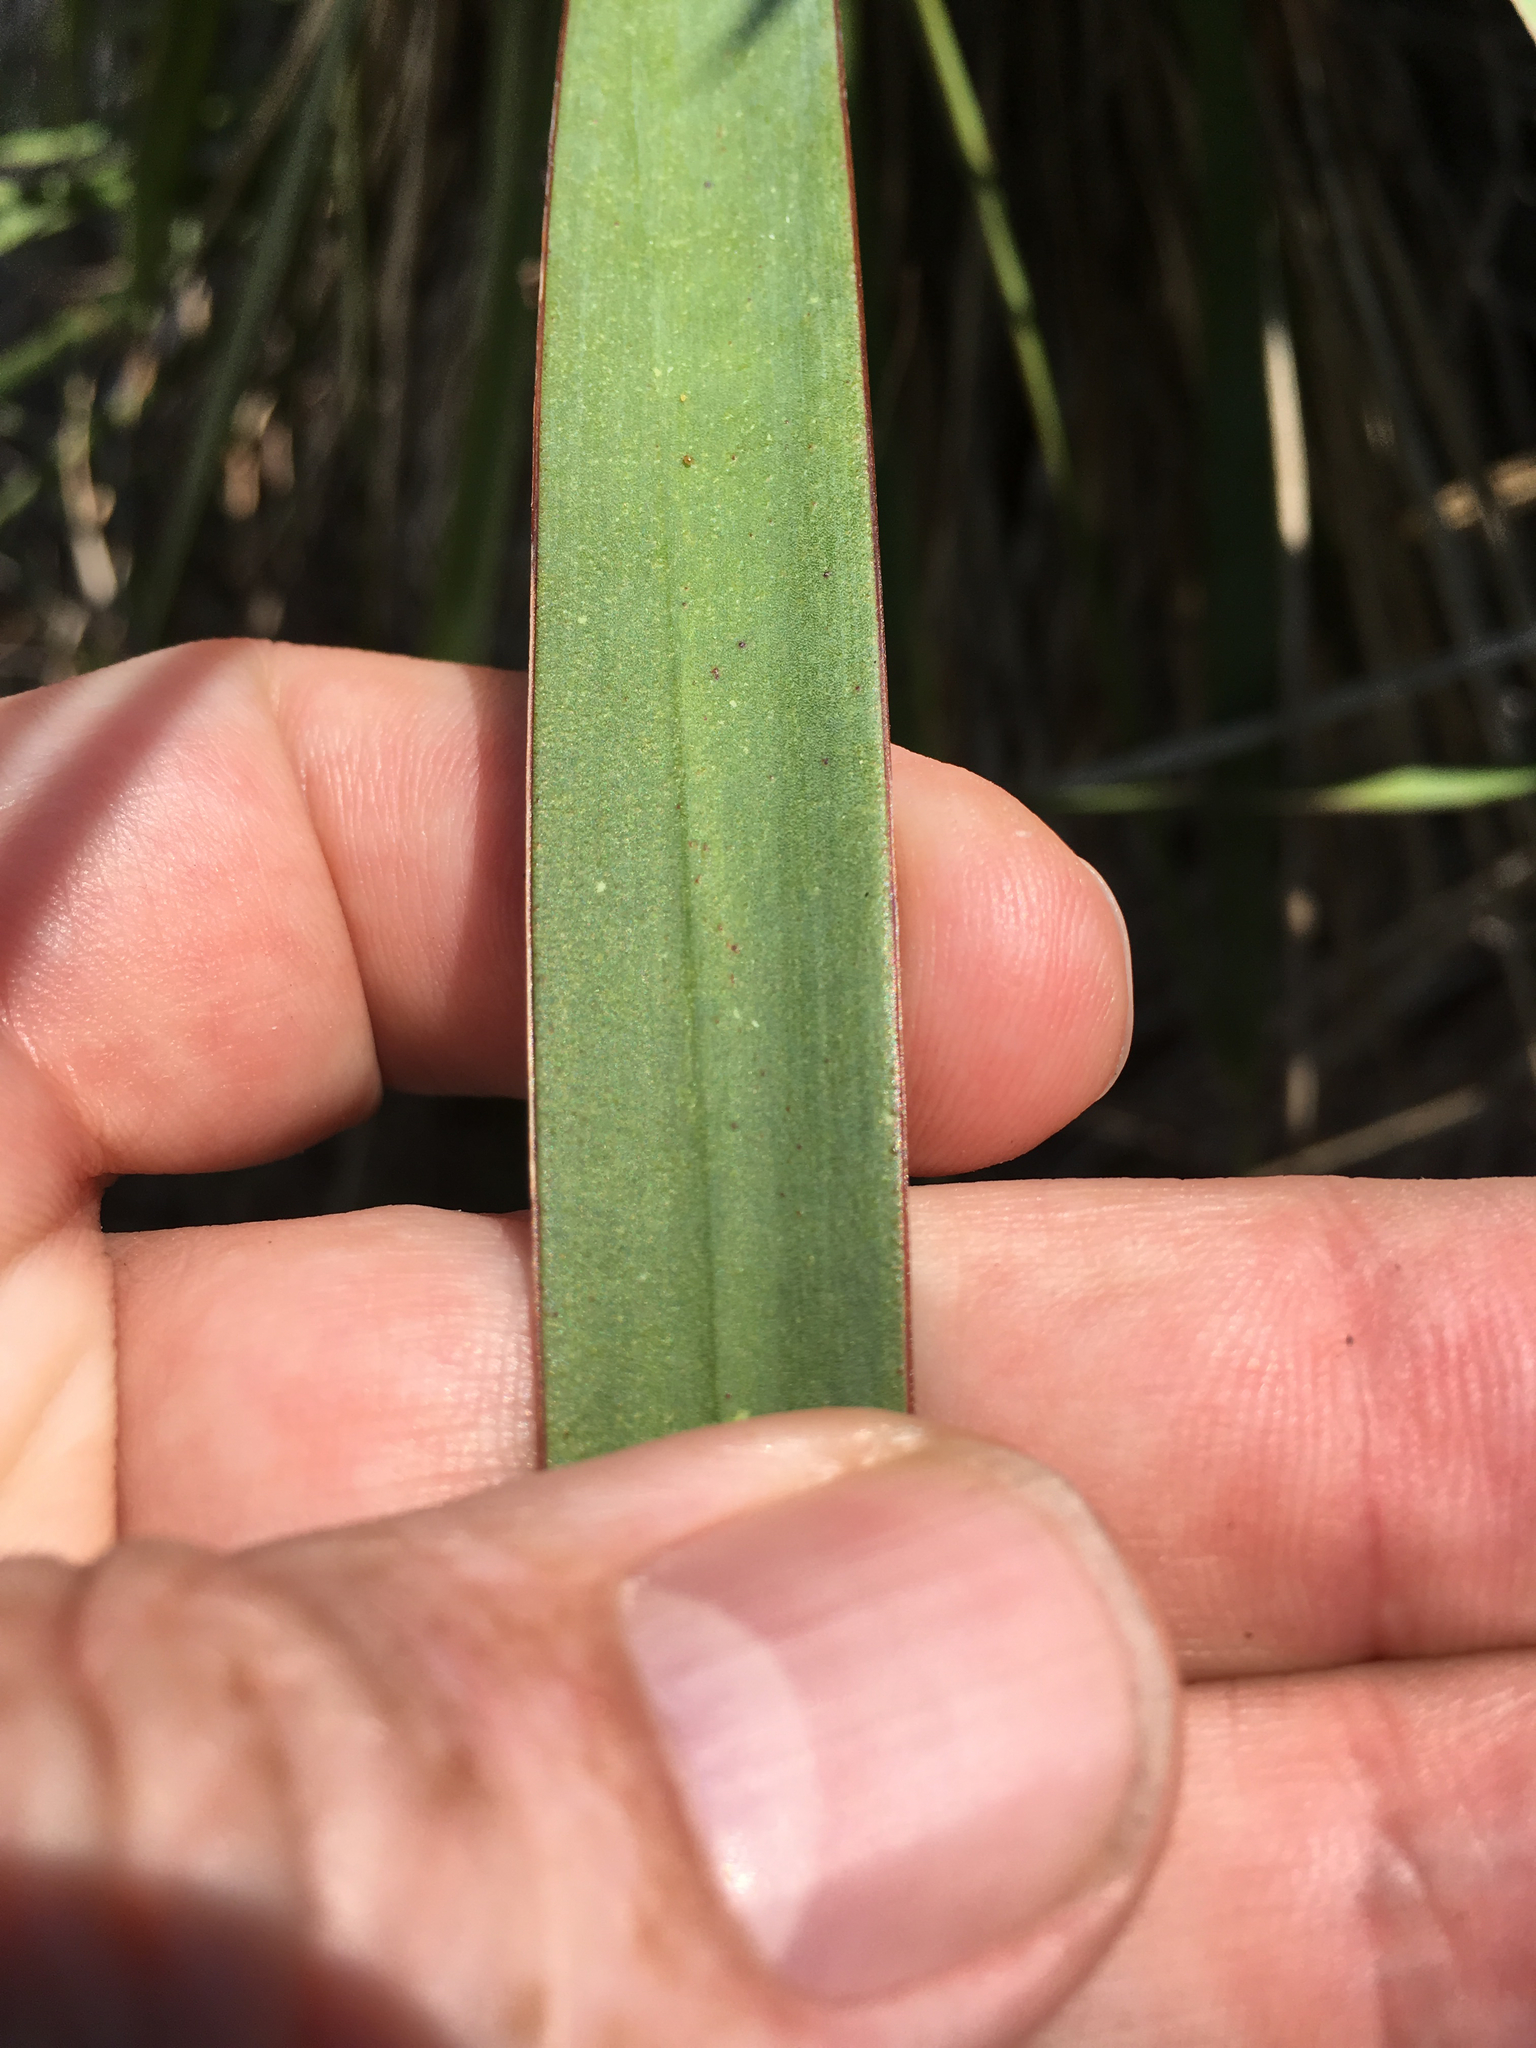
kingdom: Plantae
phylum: Tracheophyta
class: Liliopsida
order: Asparagales
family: Asparagaceae
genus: Yucca
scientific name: Yucca gloriosa
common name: Spanish-dagger
